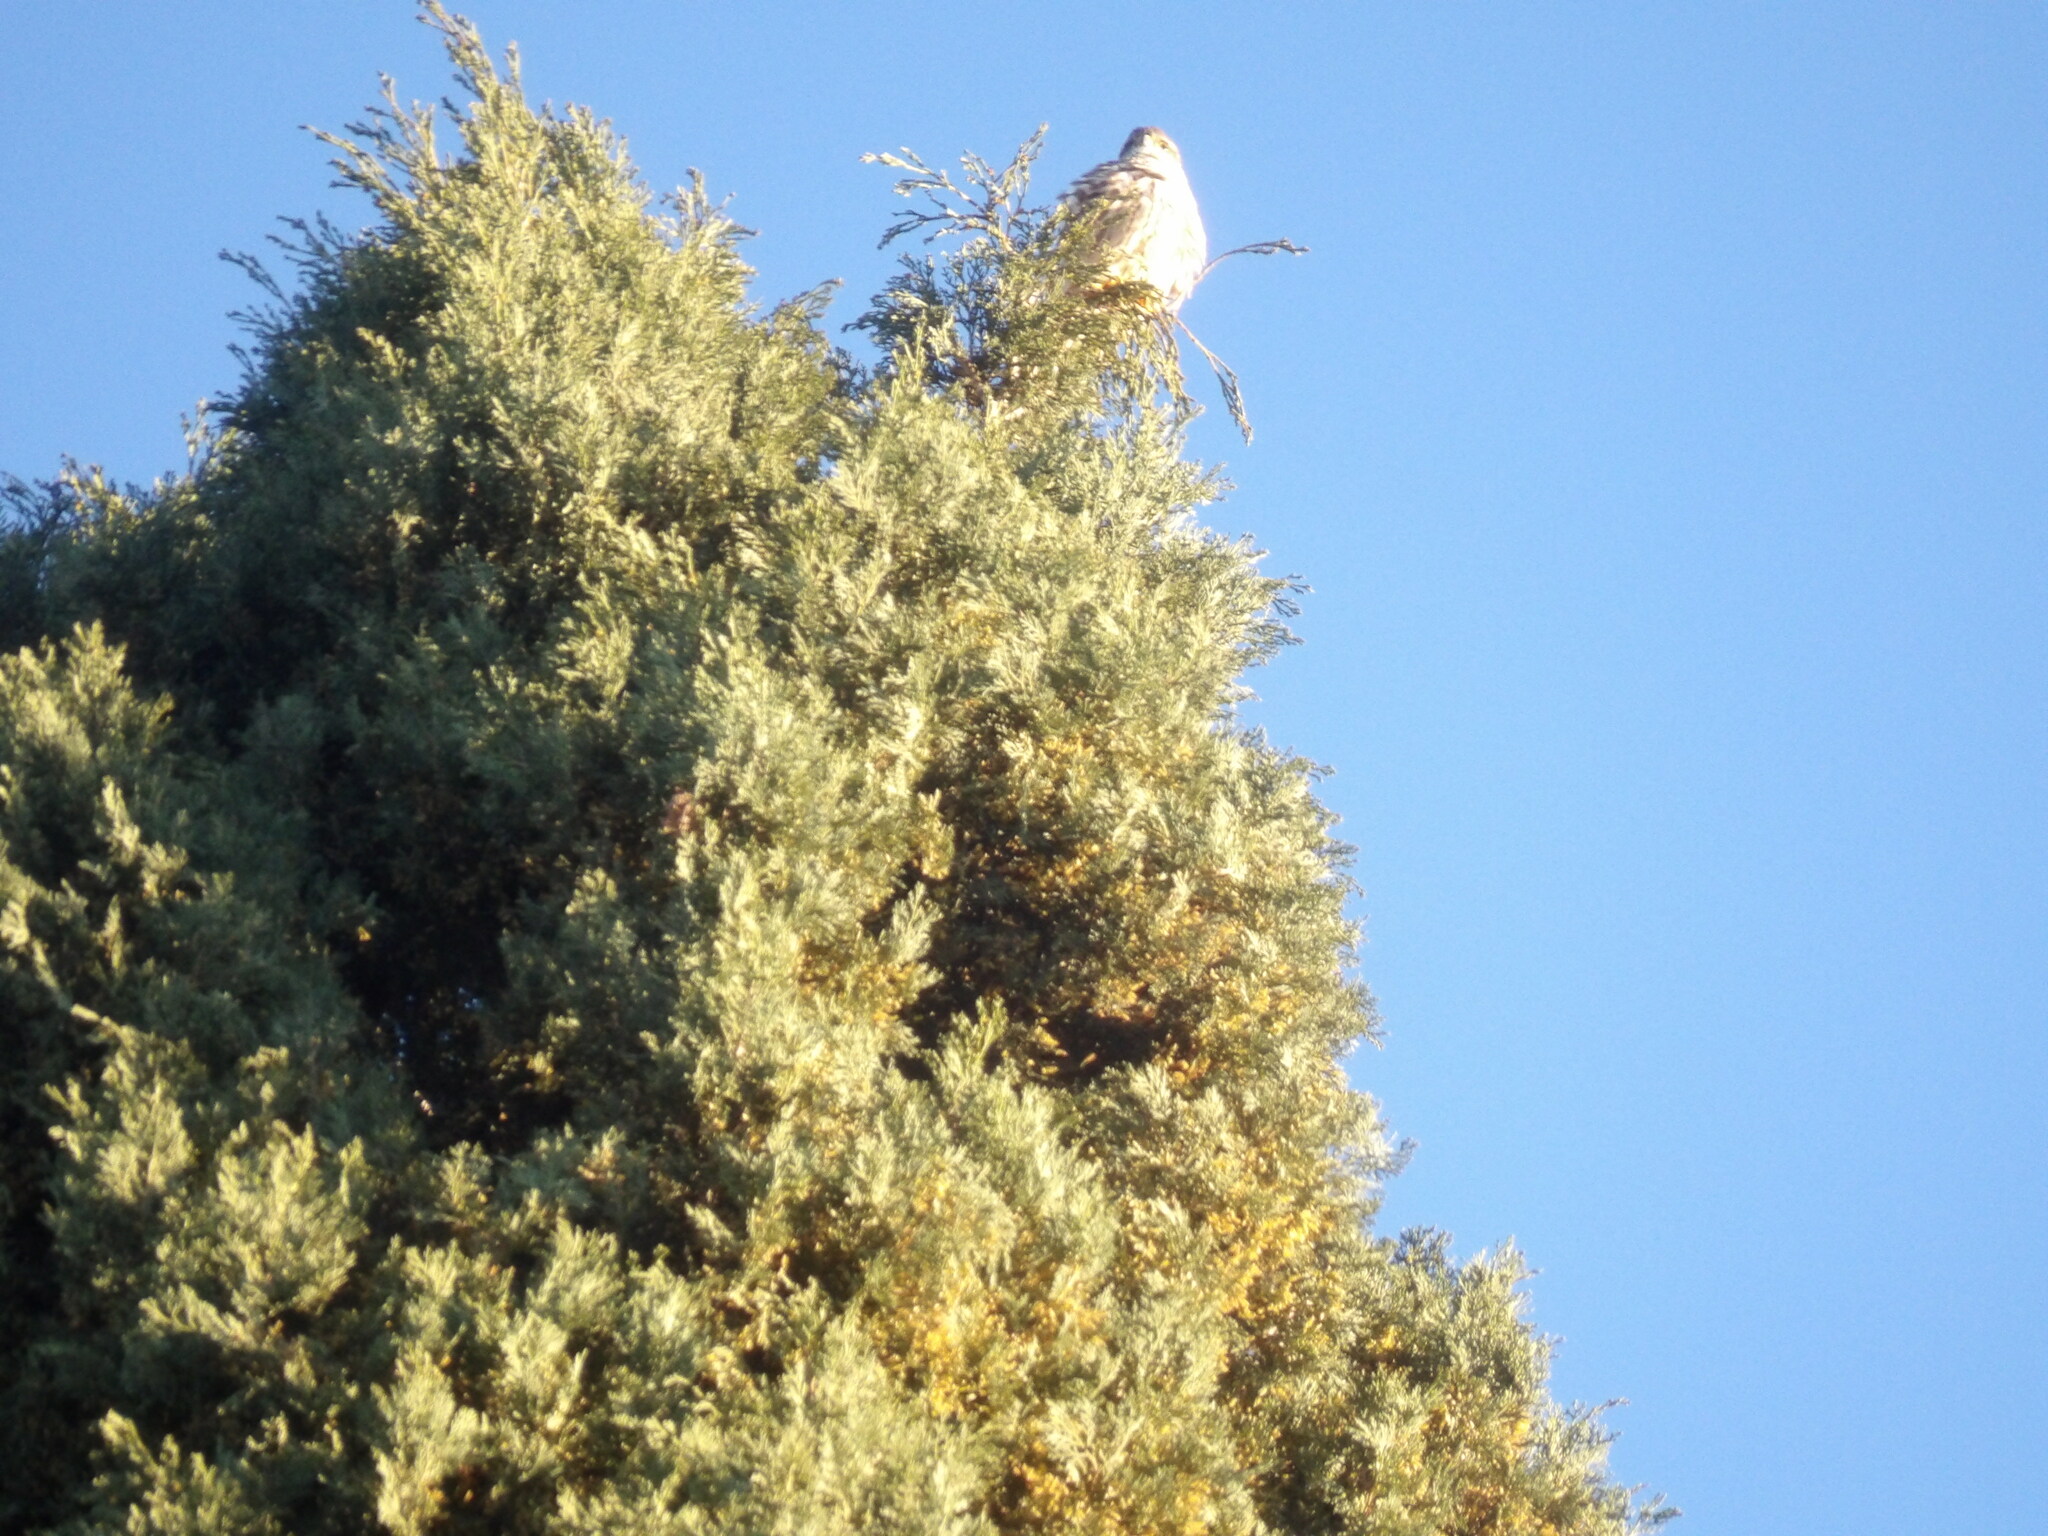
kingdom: Animalia
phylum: Chordata
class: Aves
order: Falconiformes
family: Falconidae
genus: Falco
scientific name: Falco columbarius
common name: Merlin
